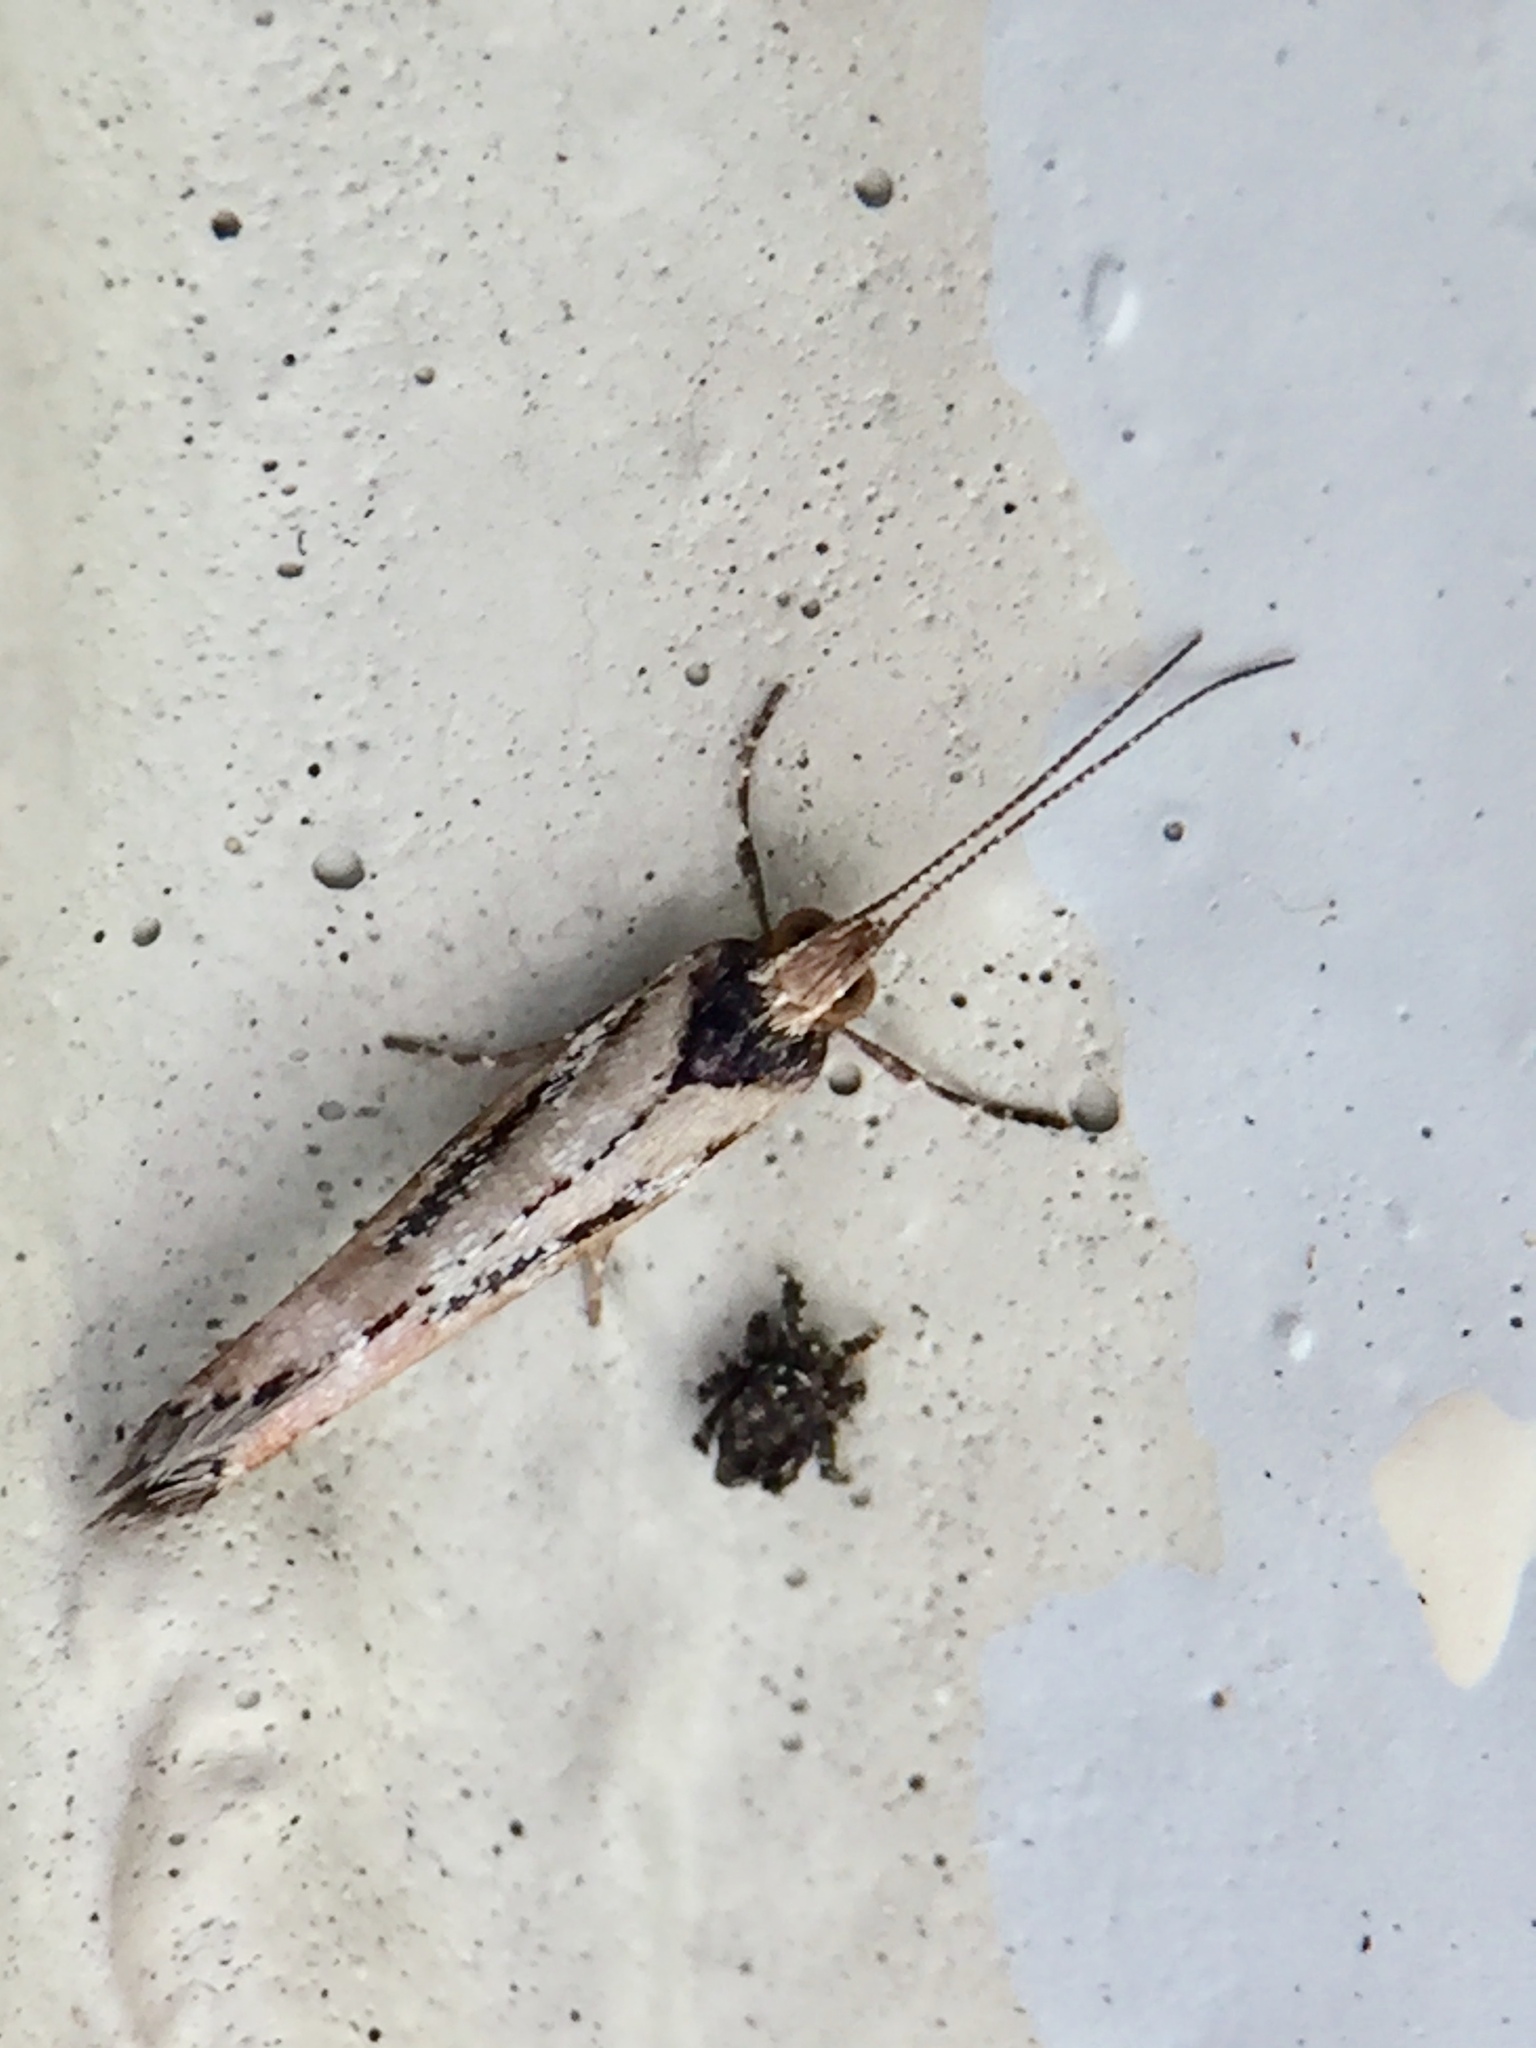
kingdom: Animalia
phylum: Arthropoda
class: Insecta
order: Lepidoptera
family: Glyphipterigidae
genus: Chrysorthenches
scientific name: Chrysorthenches porphyritis
